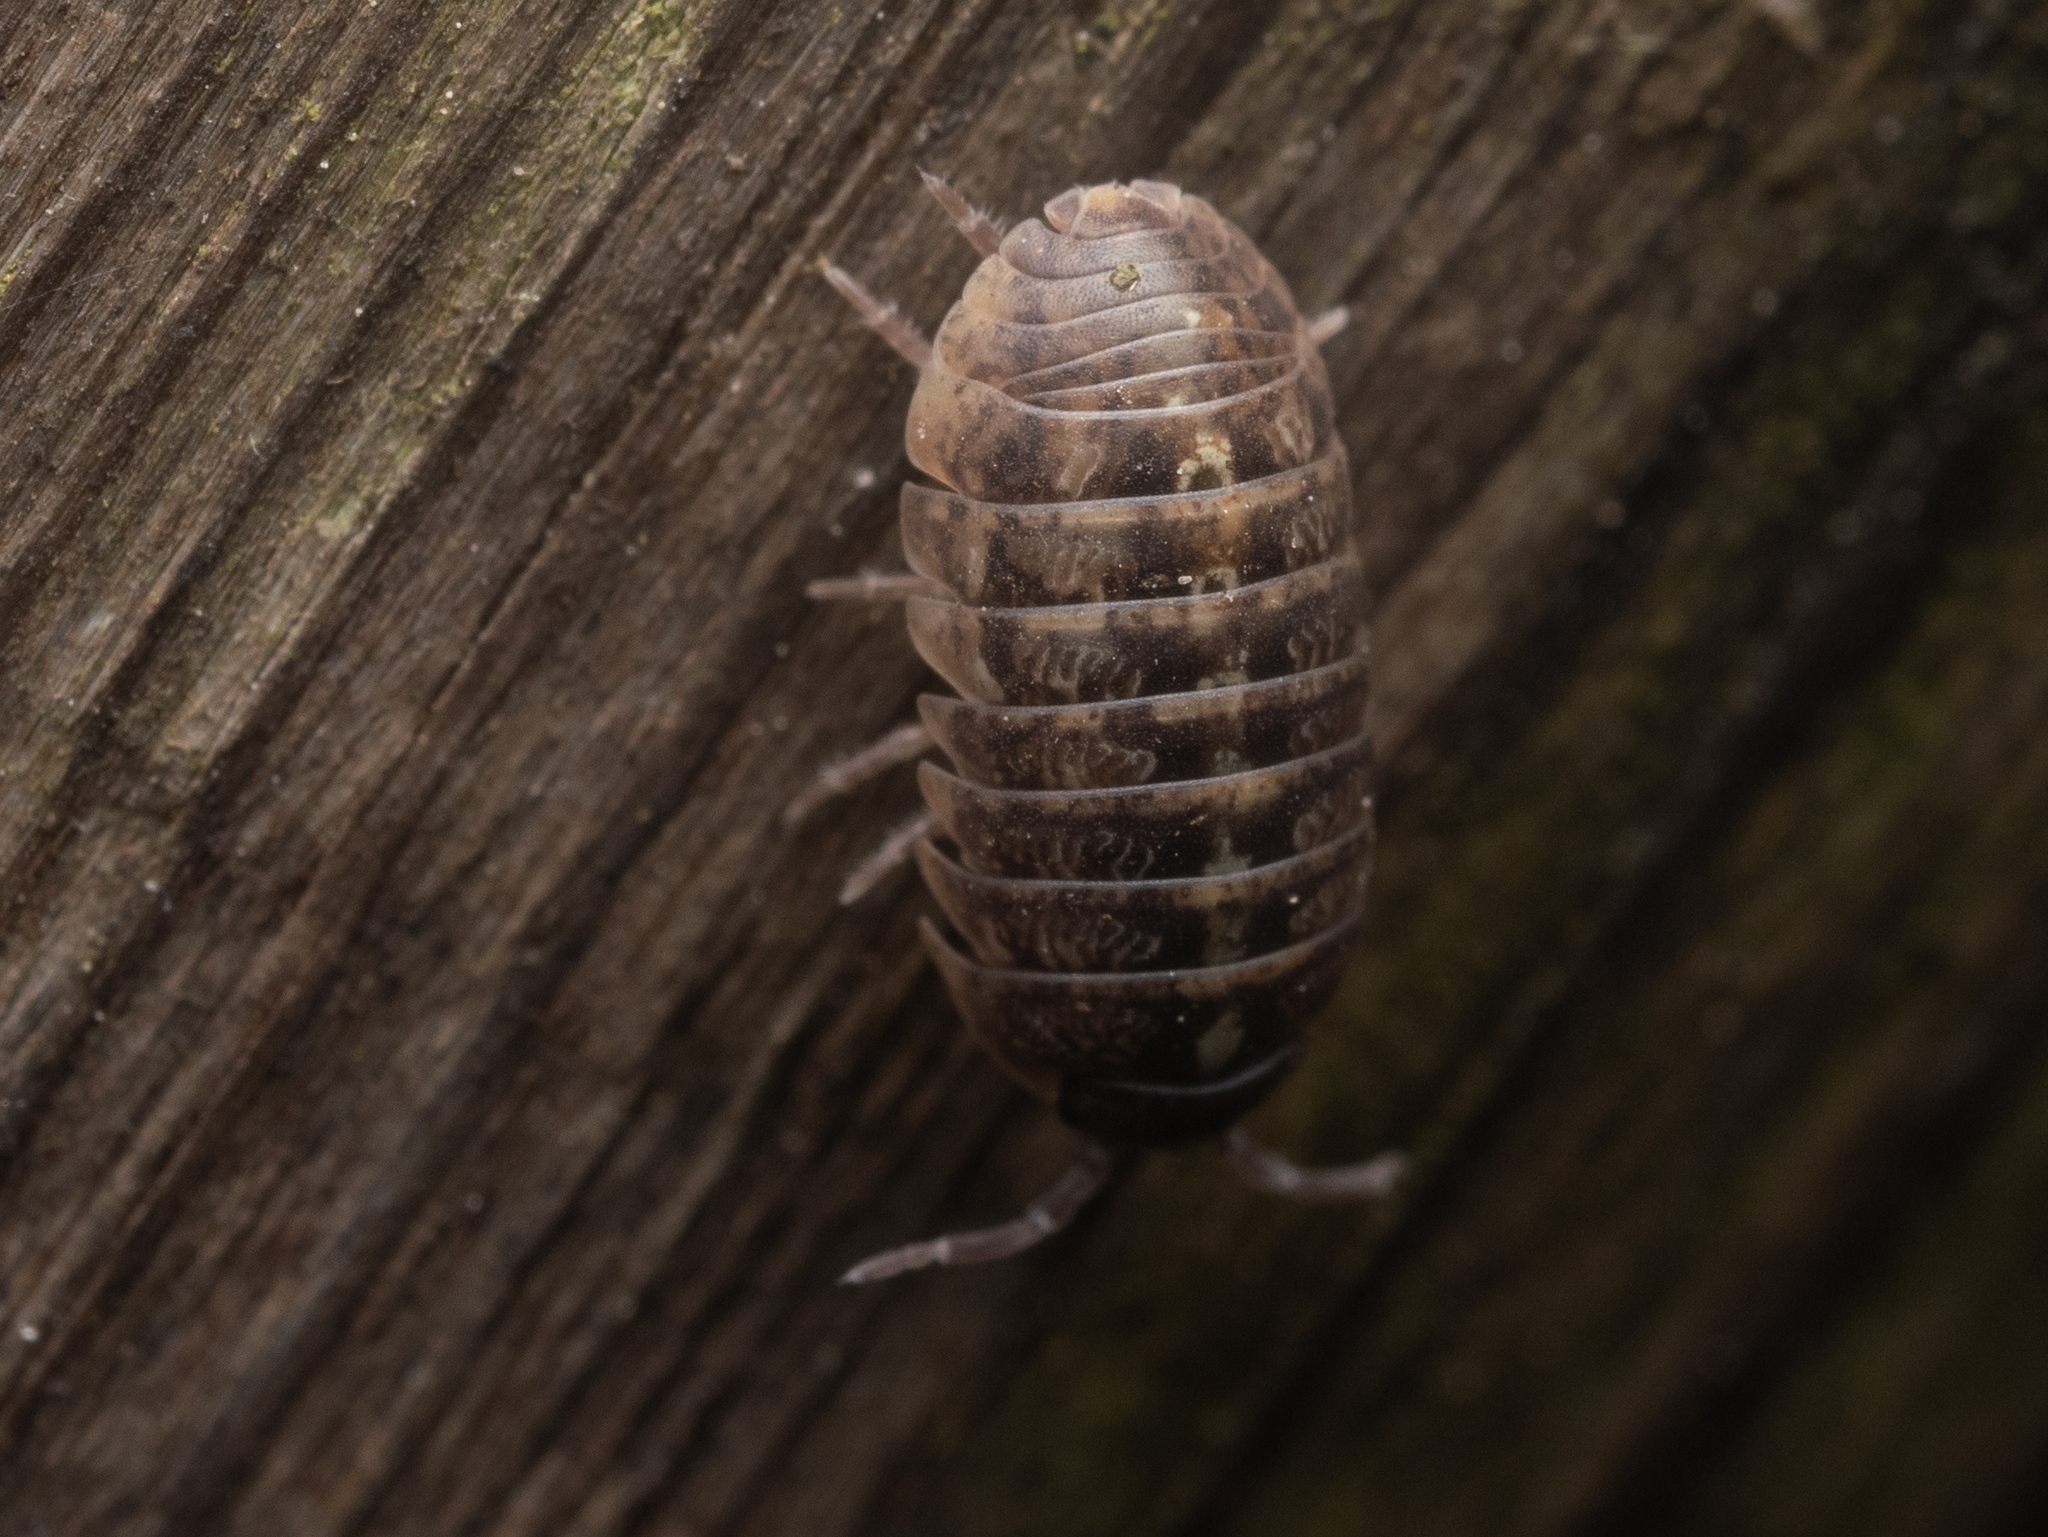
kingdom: Animalia
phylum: Arthropoda
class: Malacostraca
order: Isopoda
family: Armadillidiidae
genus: Armadillidium
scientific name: Armadillidium vulgare
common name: Common pill woodlouse
